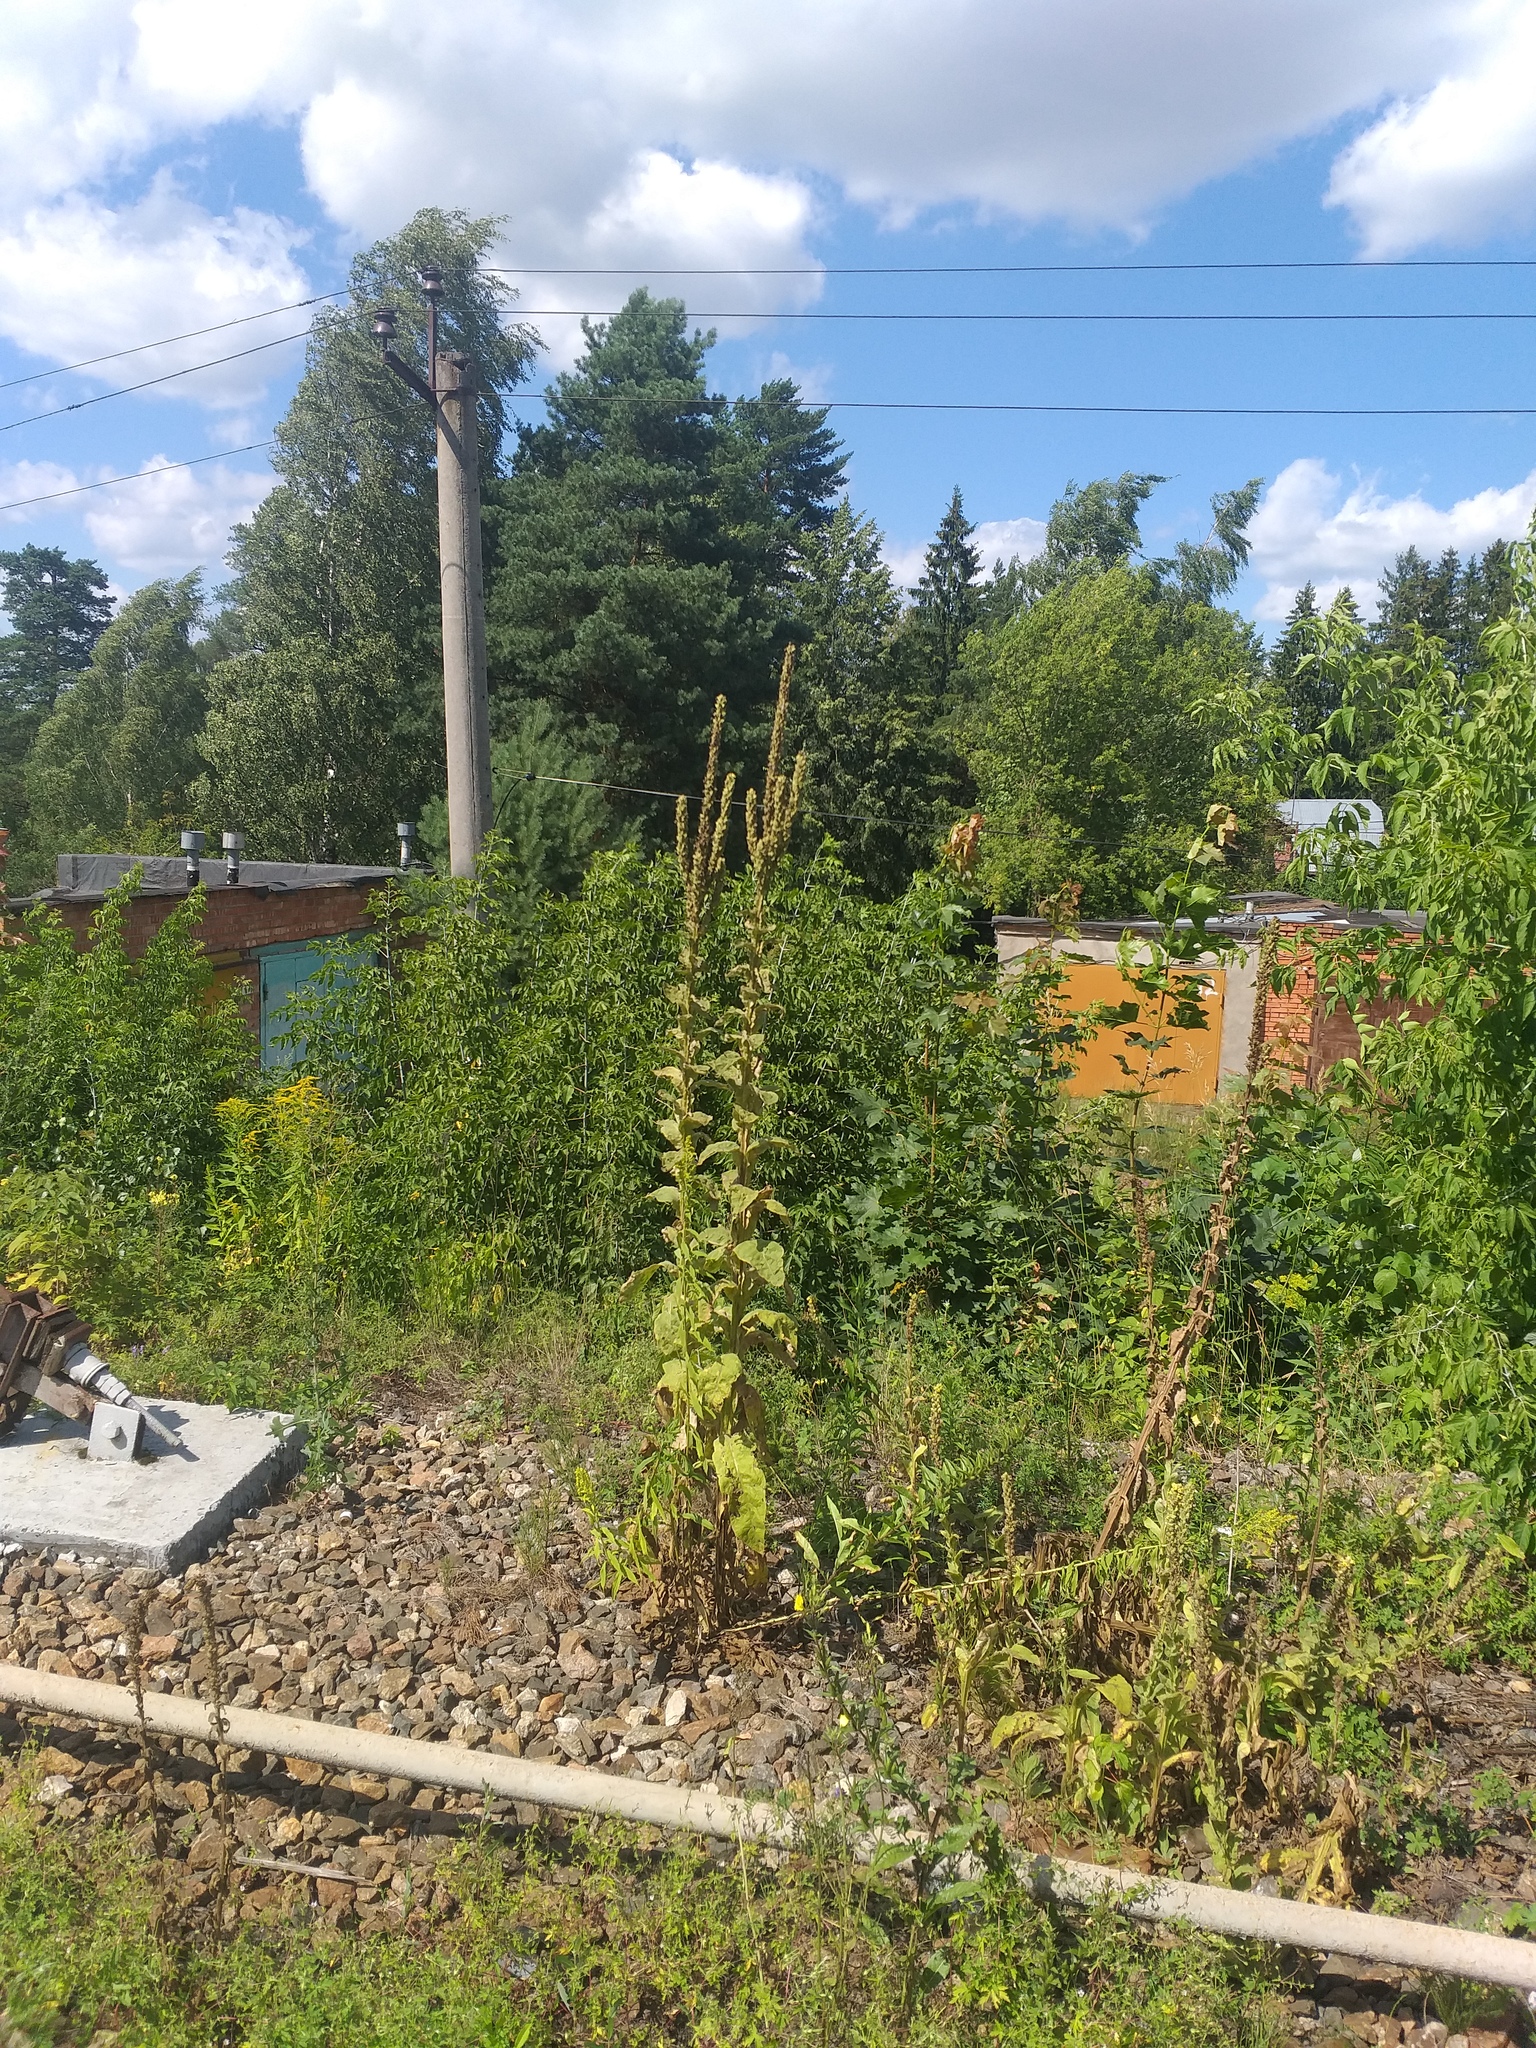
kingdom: Plantae
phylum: Tracheophyta
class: Magnoliopsida
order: Lamiales
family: Scrophulariaceae
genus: Verbascum
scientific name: Verbascum thapsus
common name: Common mullein
